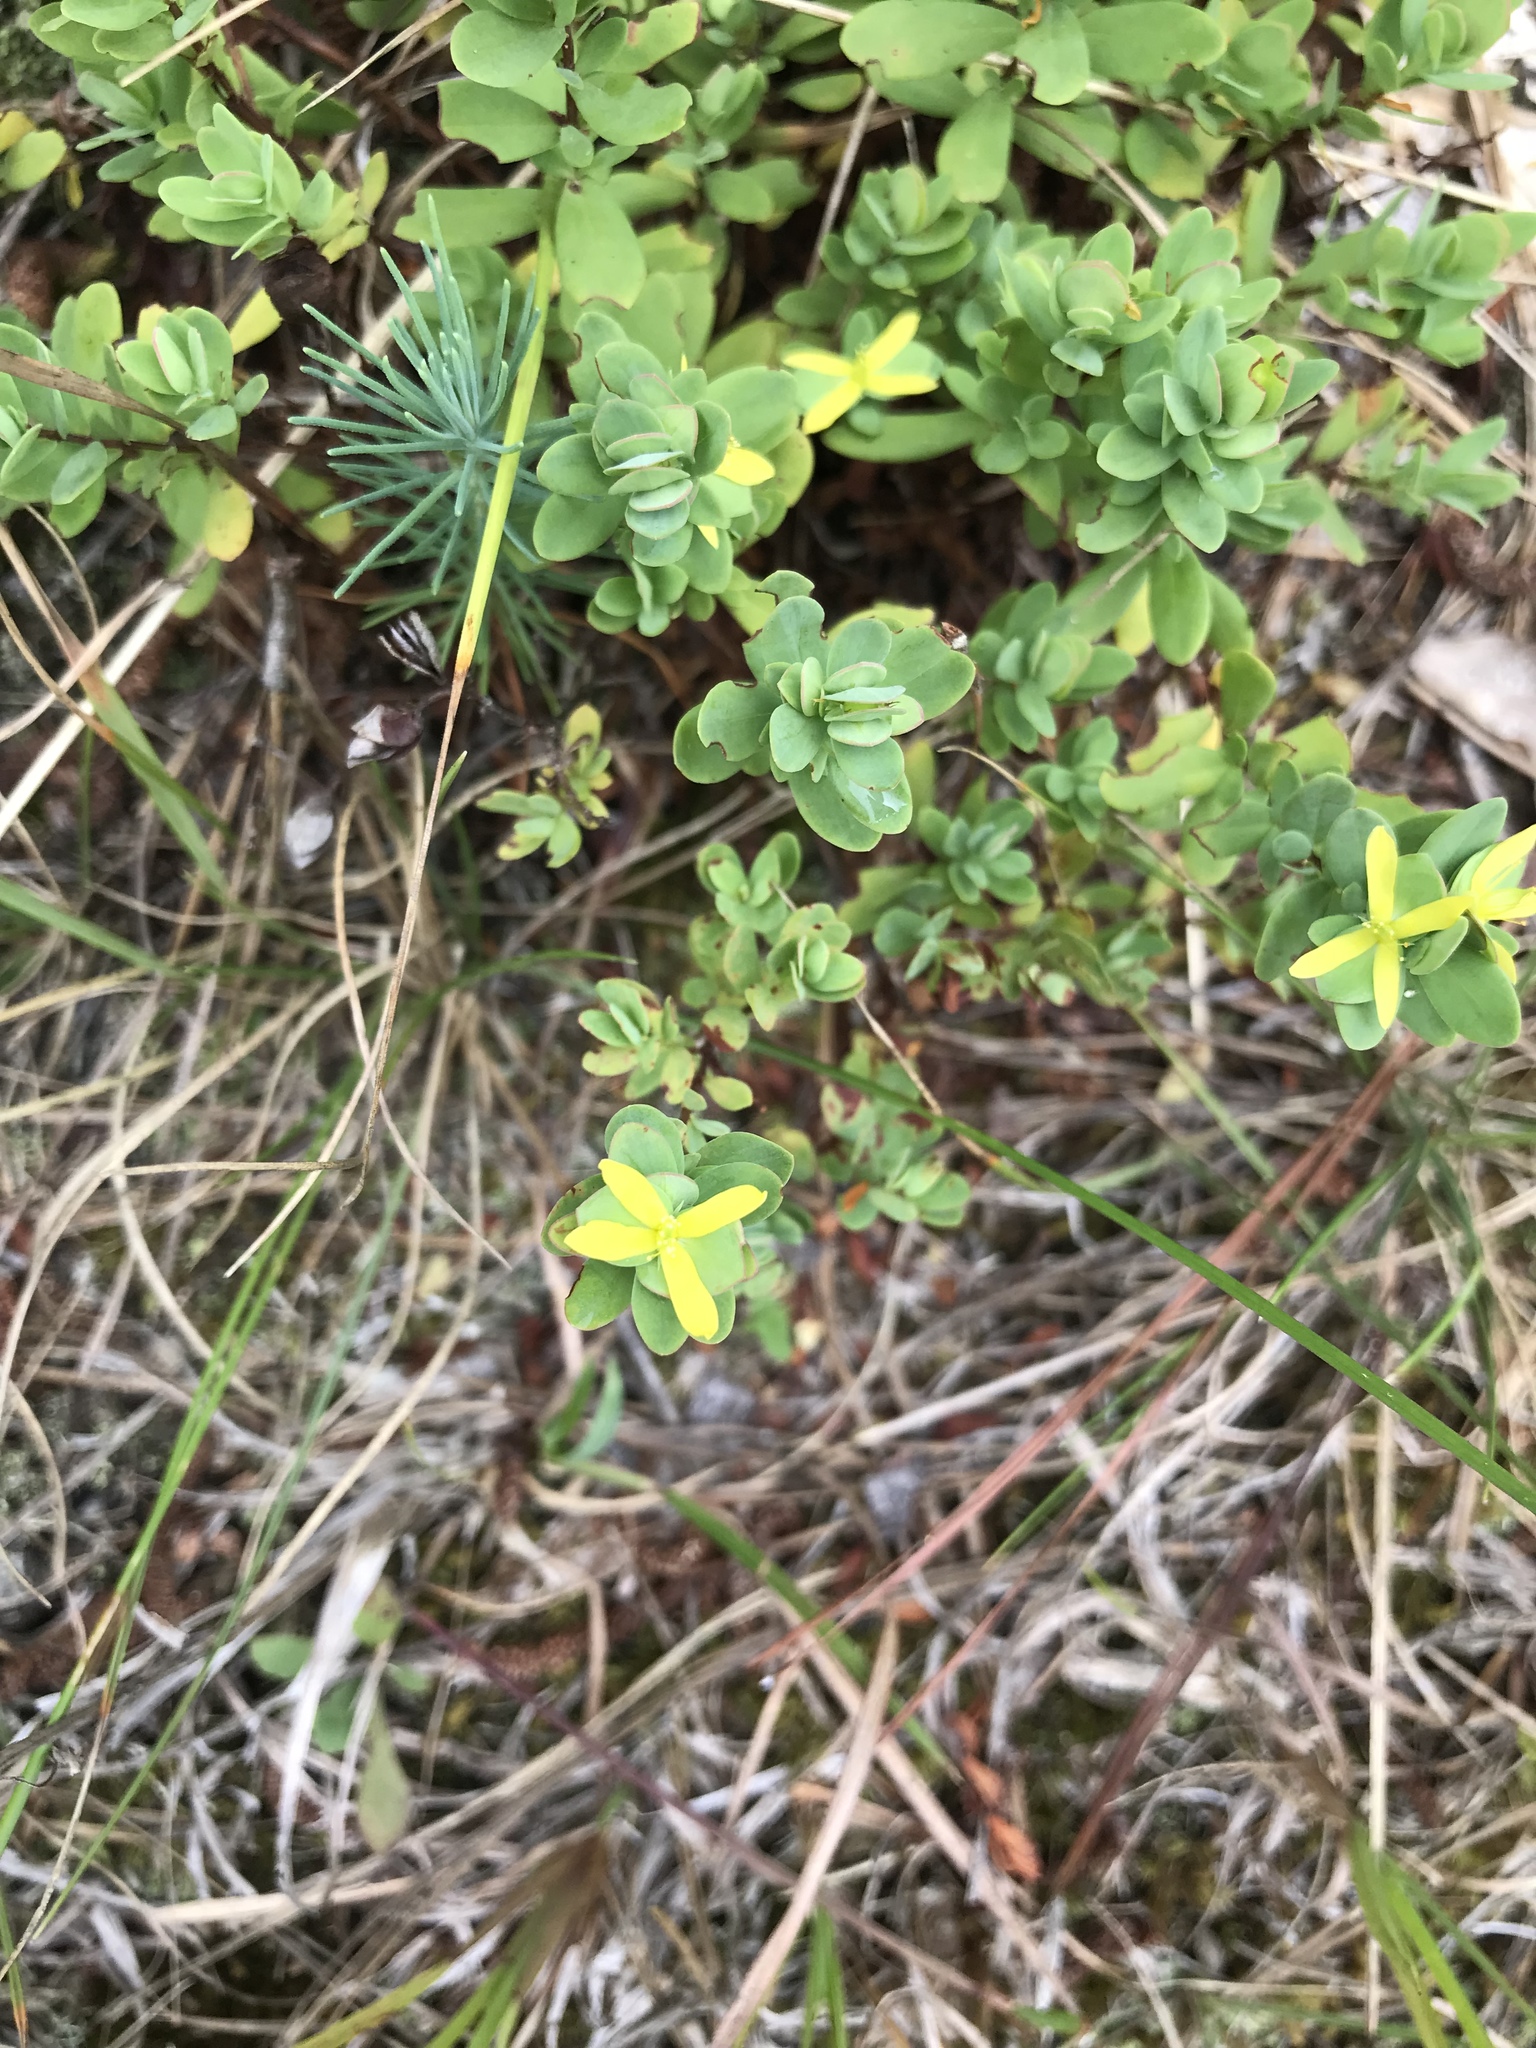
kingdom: Plantae
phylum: Tracheophyta
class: Magnoliopsida
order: Malpighiales
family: Hypericaceae
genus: Hypericum
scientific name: Hypericum hypericoides
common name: St. andrew's cross
